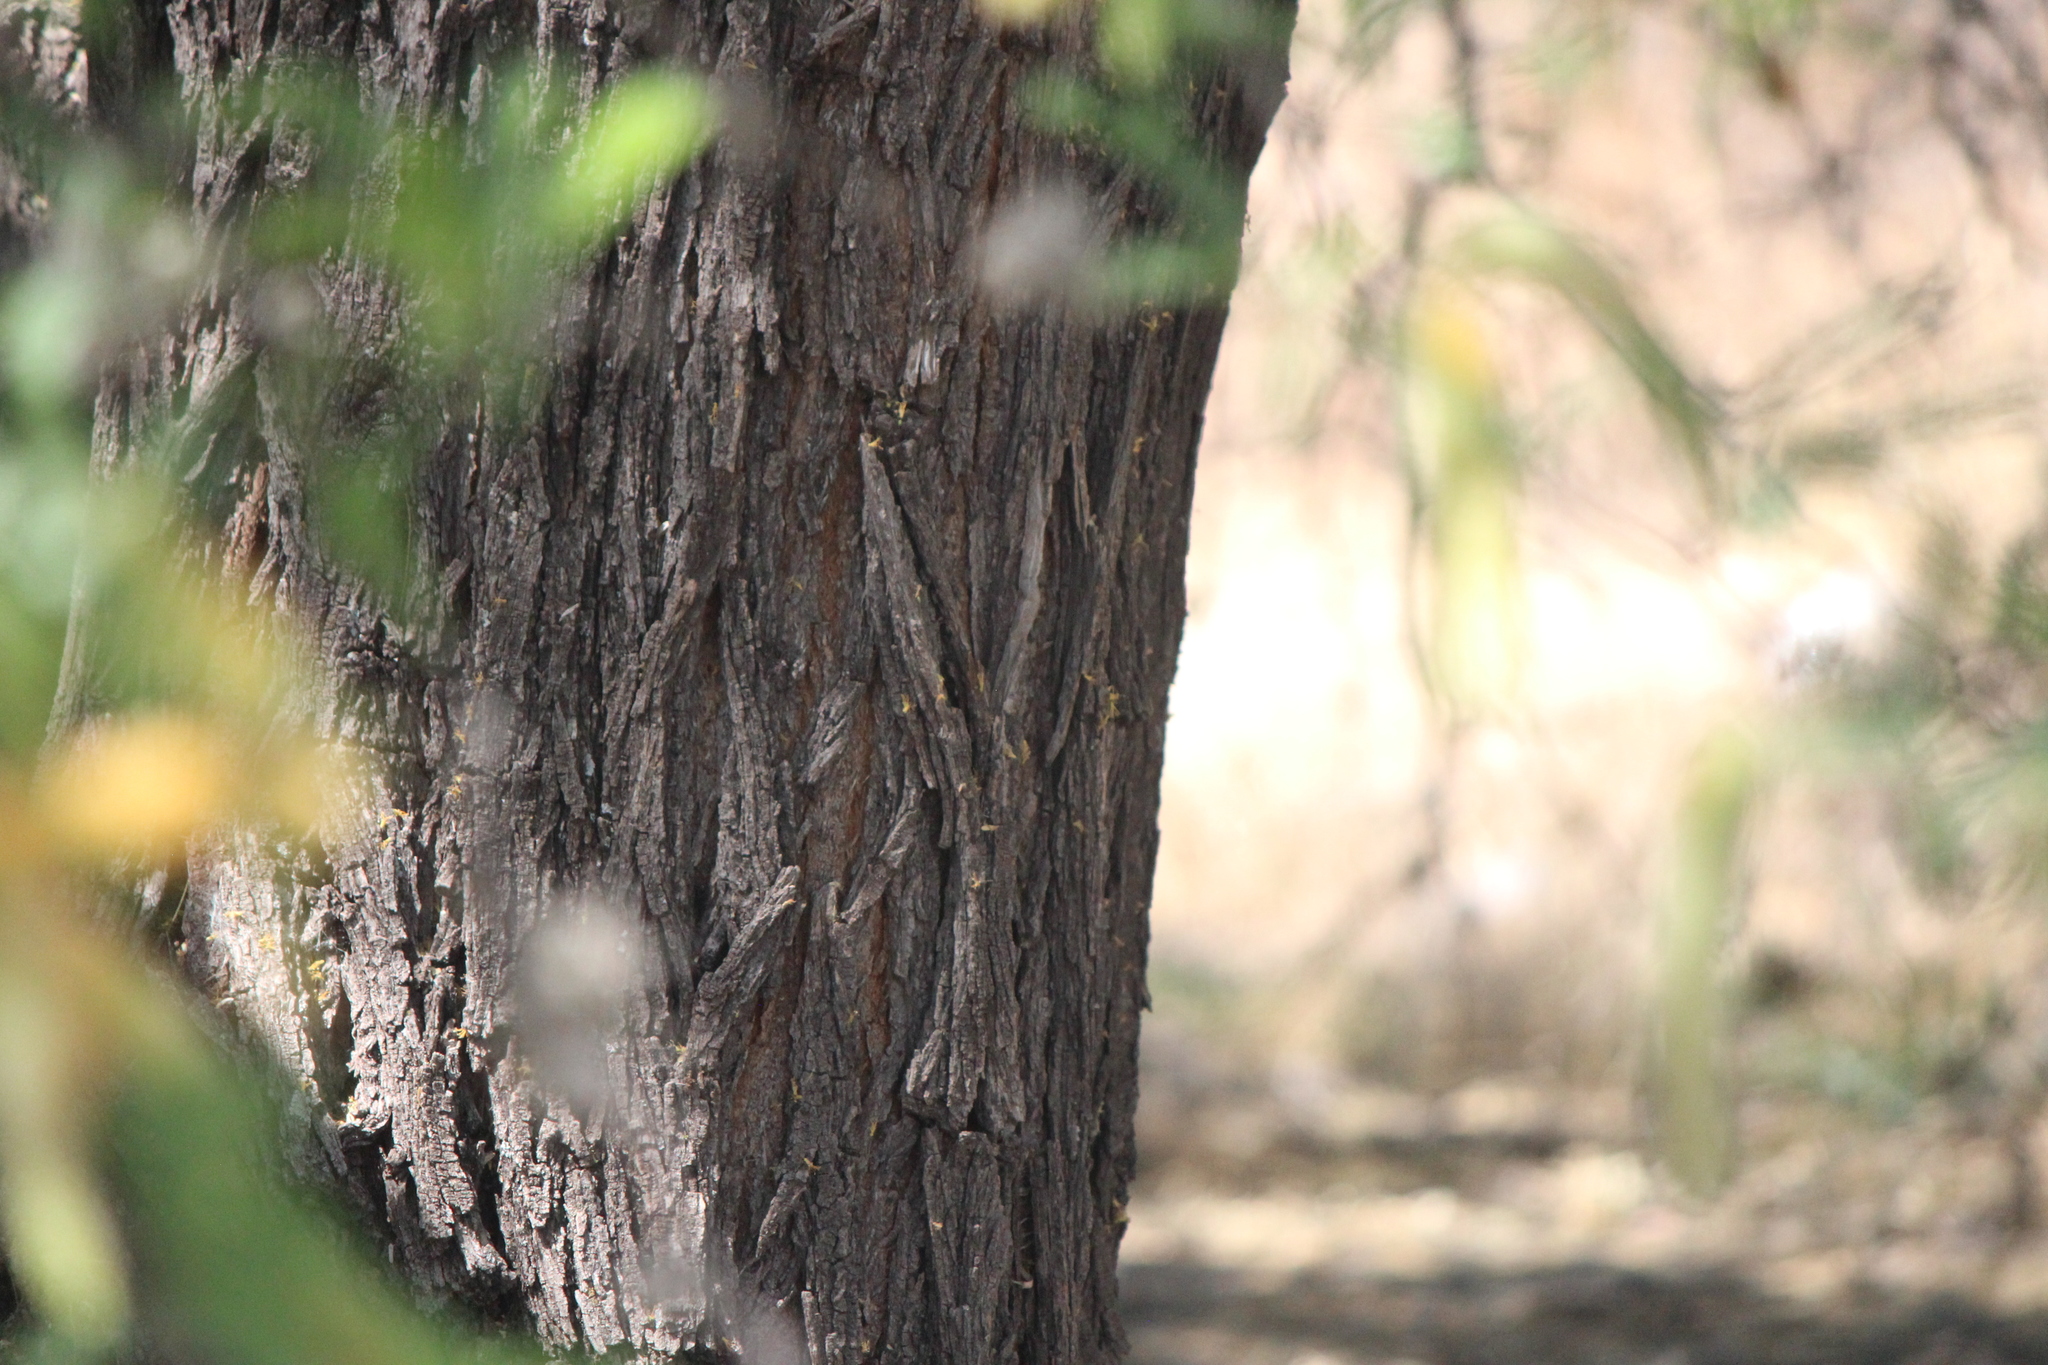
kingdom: Plantae
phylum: Tracheophyta
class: Magnoliopsida
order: Fabales
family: Fabaceae
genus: Prosopis
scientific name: Prosopis laevigata
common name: Smooth mesquite
